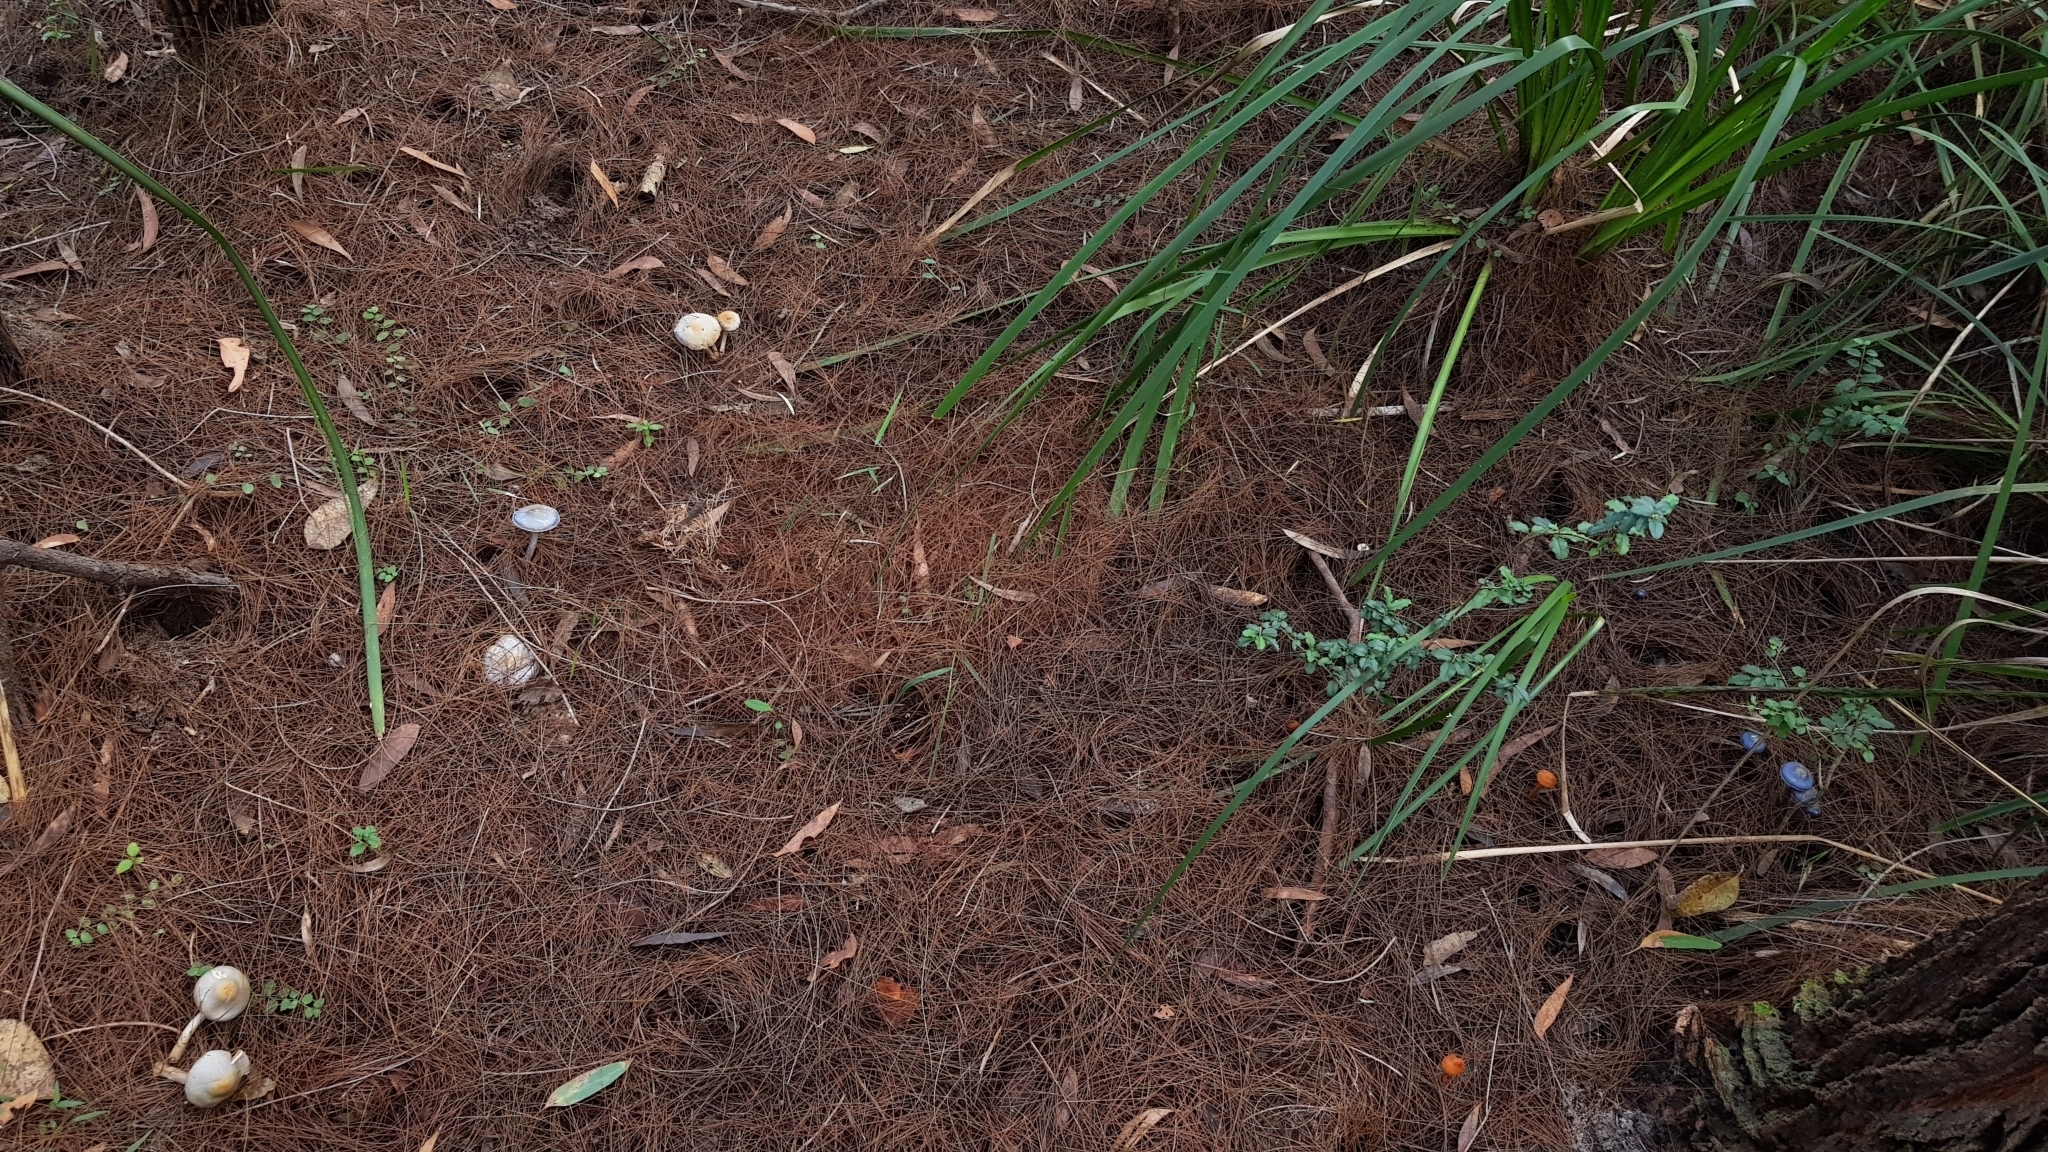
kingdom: Fungi
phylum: Basidiomycota
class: Agaricomycetes
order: Agaricales
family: Cortinariaceae
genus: Cortinarius
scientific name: Cortinarius rotundisporus
